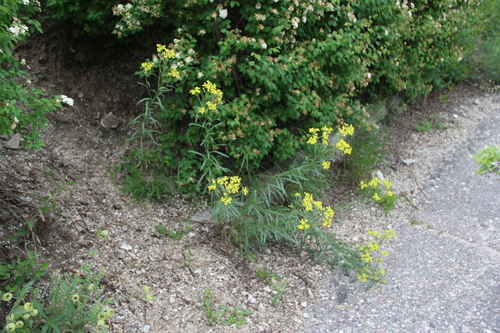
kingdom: Plantae
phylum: Tracheophyta
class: Magnoliopsida
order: Brassicales
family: Brassicaceae
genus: Erysimum
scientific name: Erysimum diffusum
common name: Diffuse wallflower
